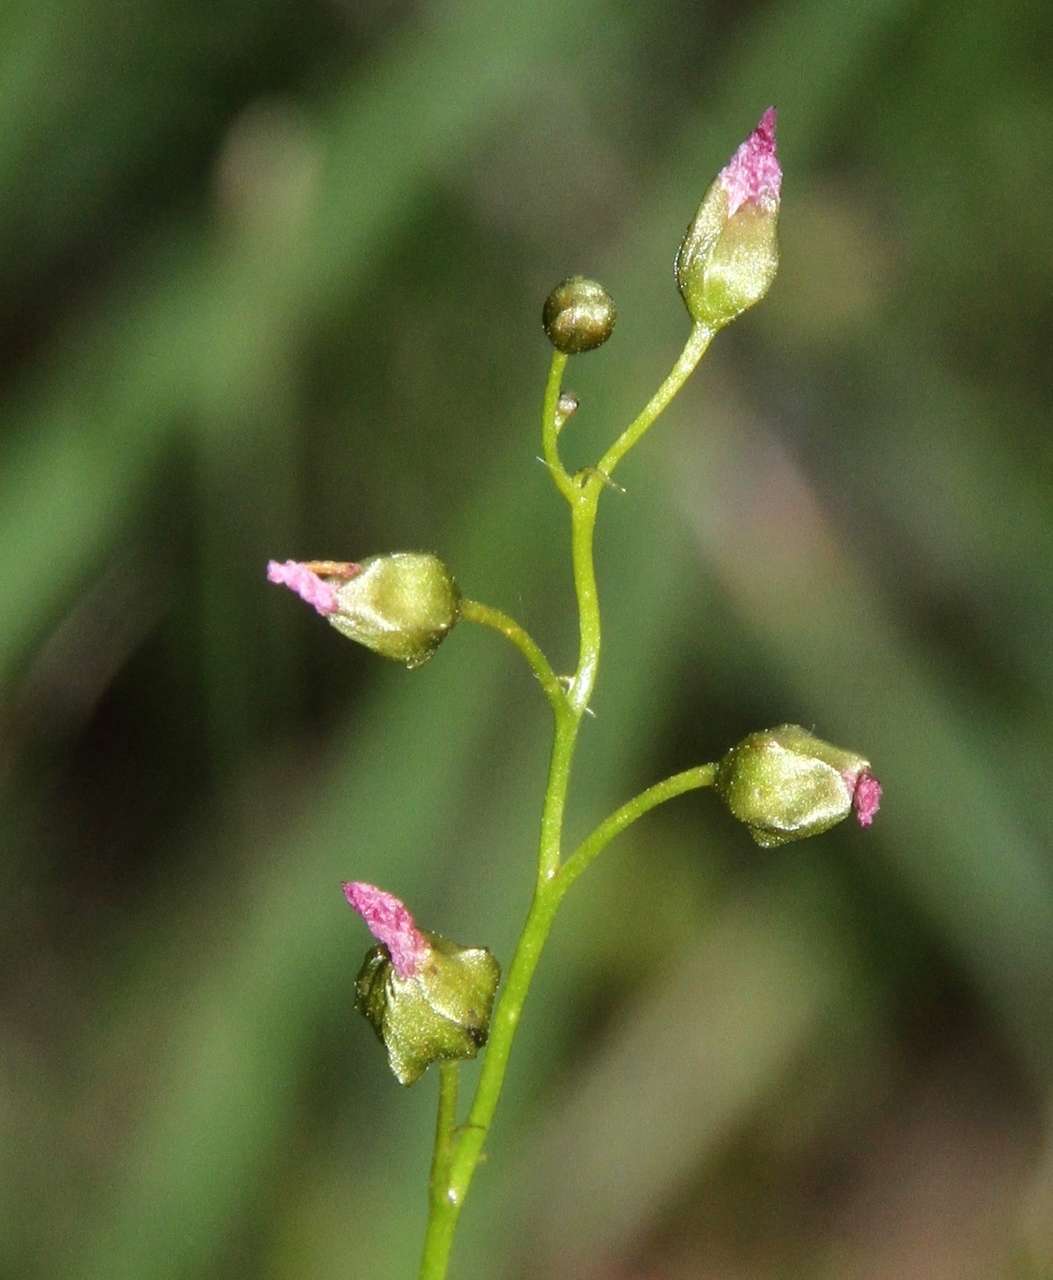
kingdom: Plantae
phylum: Tracheophyta
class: Magnoliopsida
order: Caryophyllales
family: Droseraceae
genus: Drosera
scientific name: Drosera peltata
